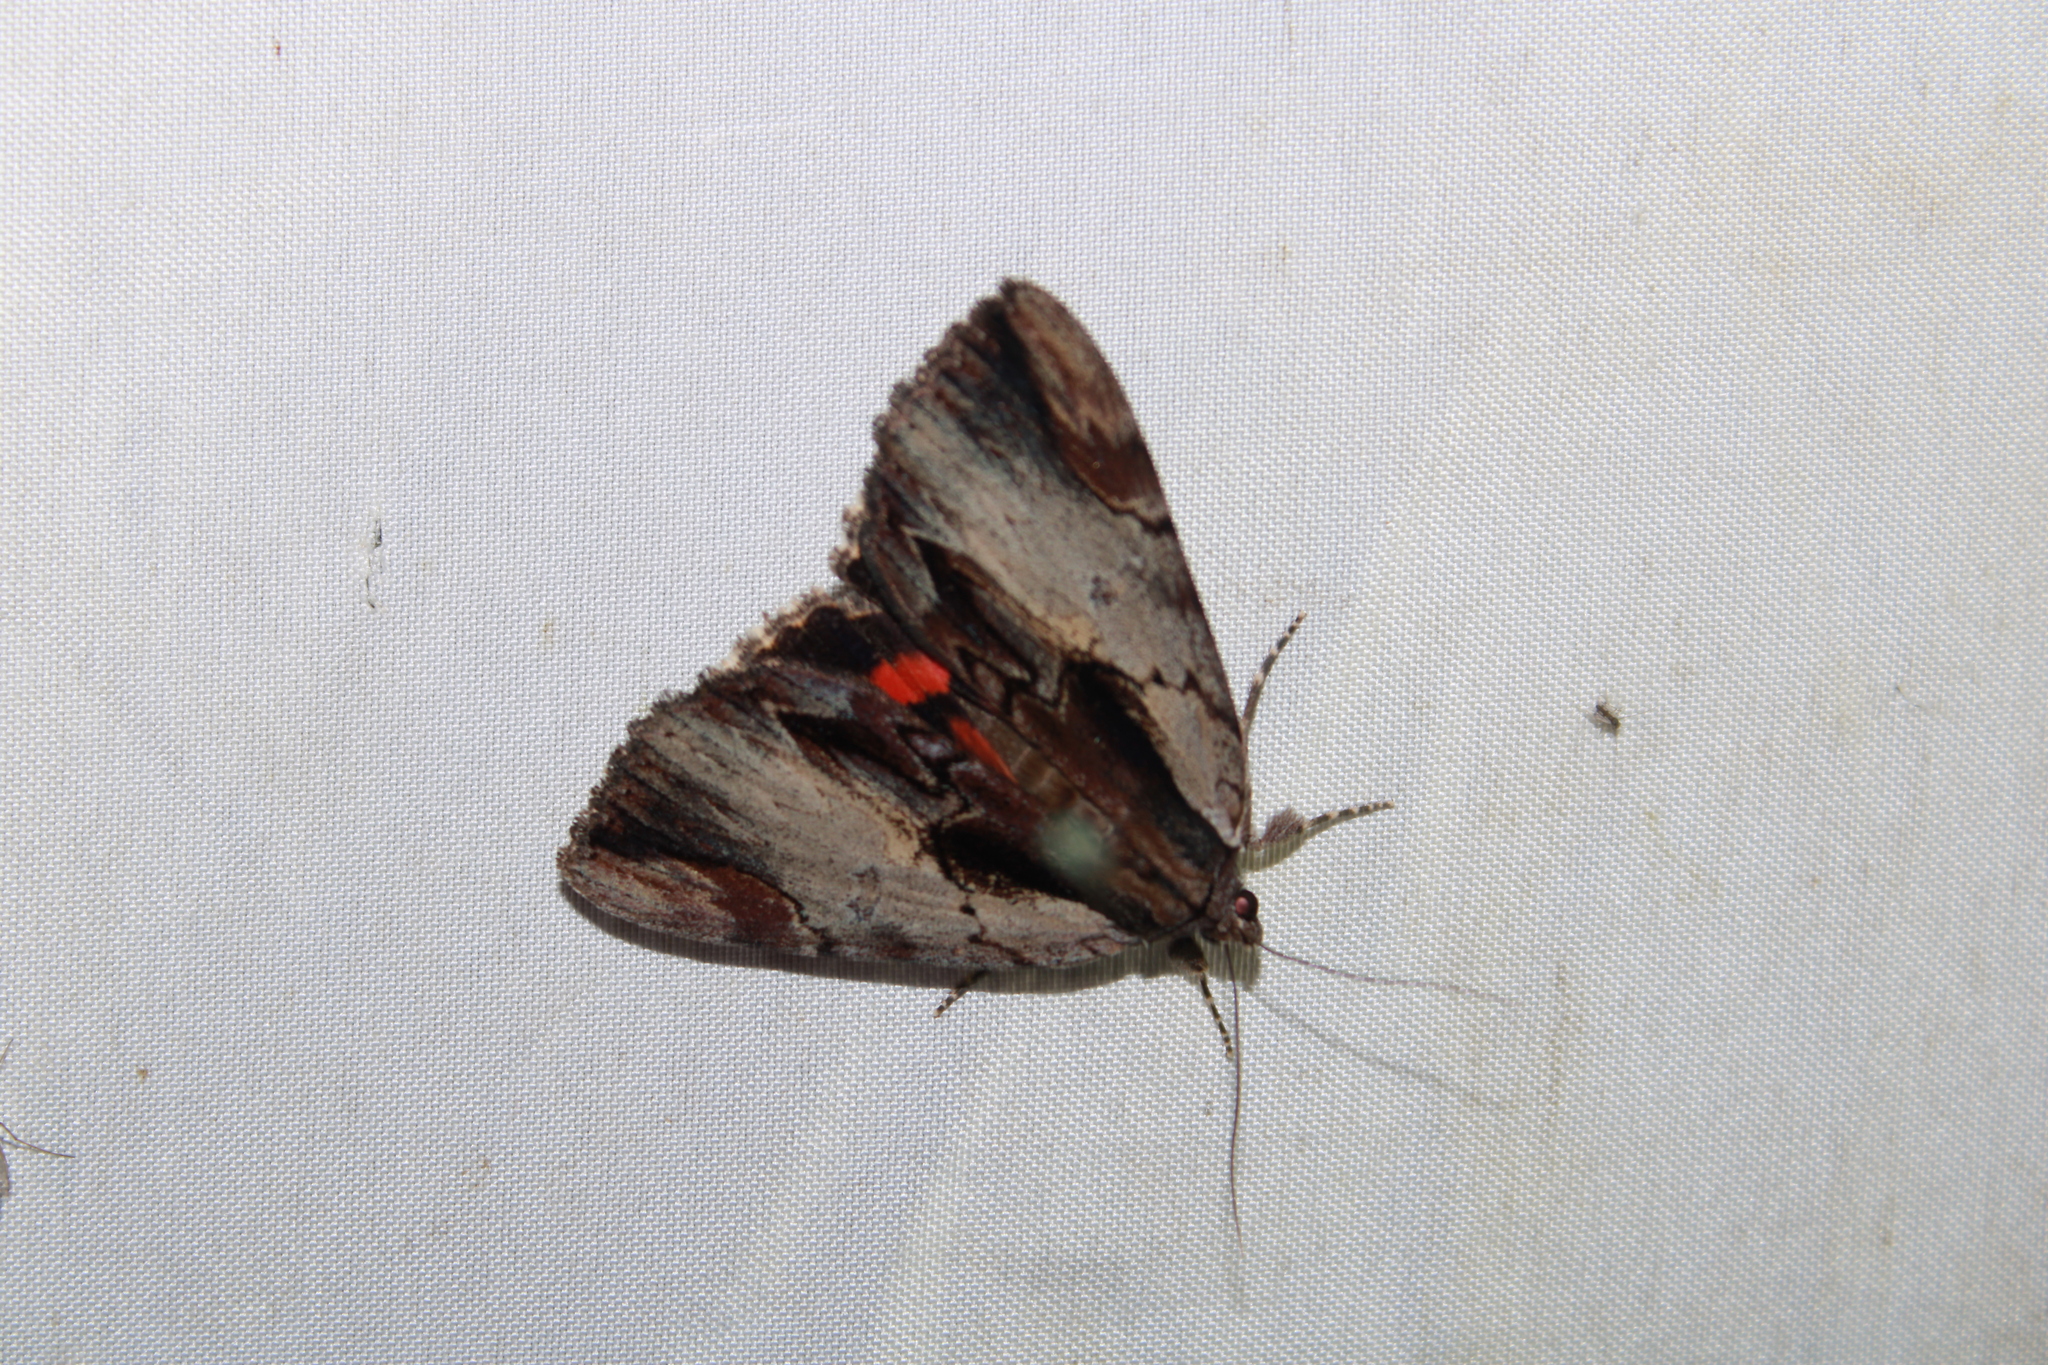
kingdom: Animalia
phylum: Arthropoda
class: Insecta
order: Lepidoptera
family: Erebidae
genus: Catocala
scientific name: Catocala ultronia
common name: Ultronia underwing
